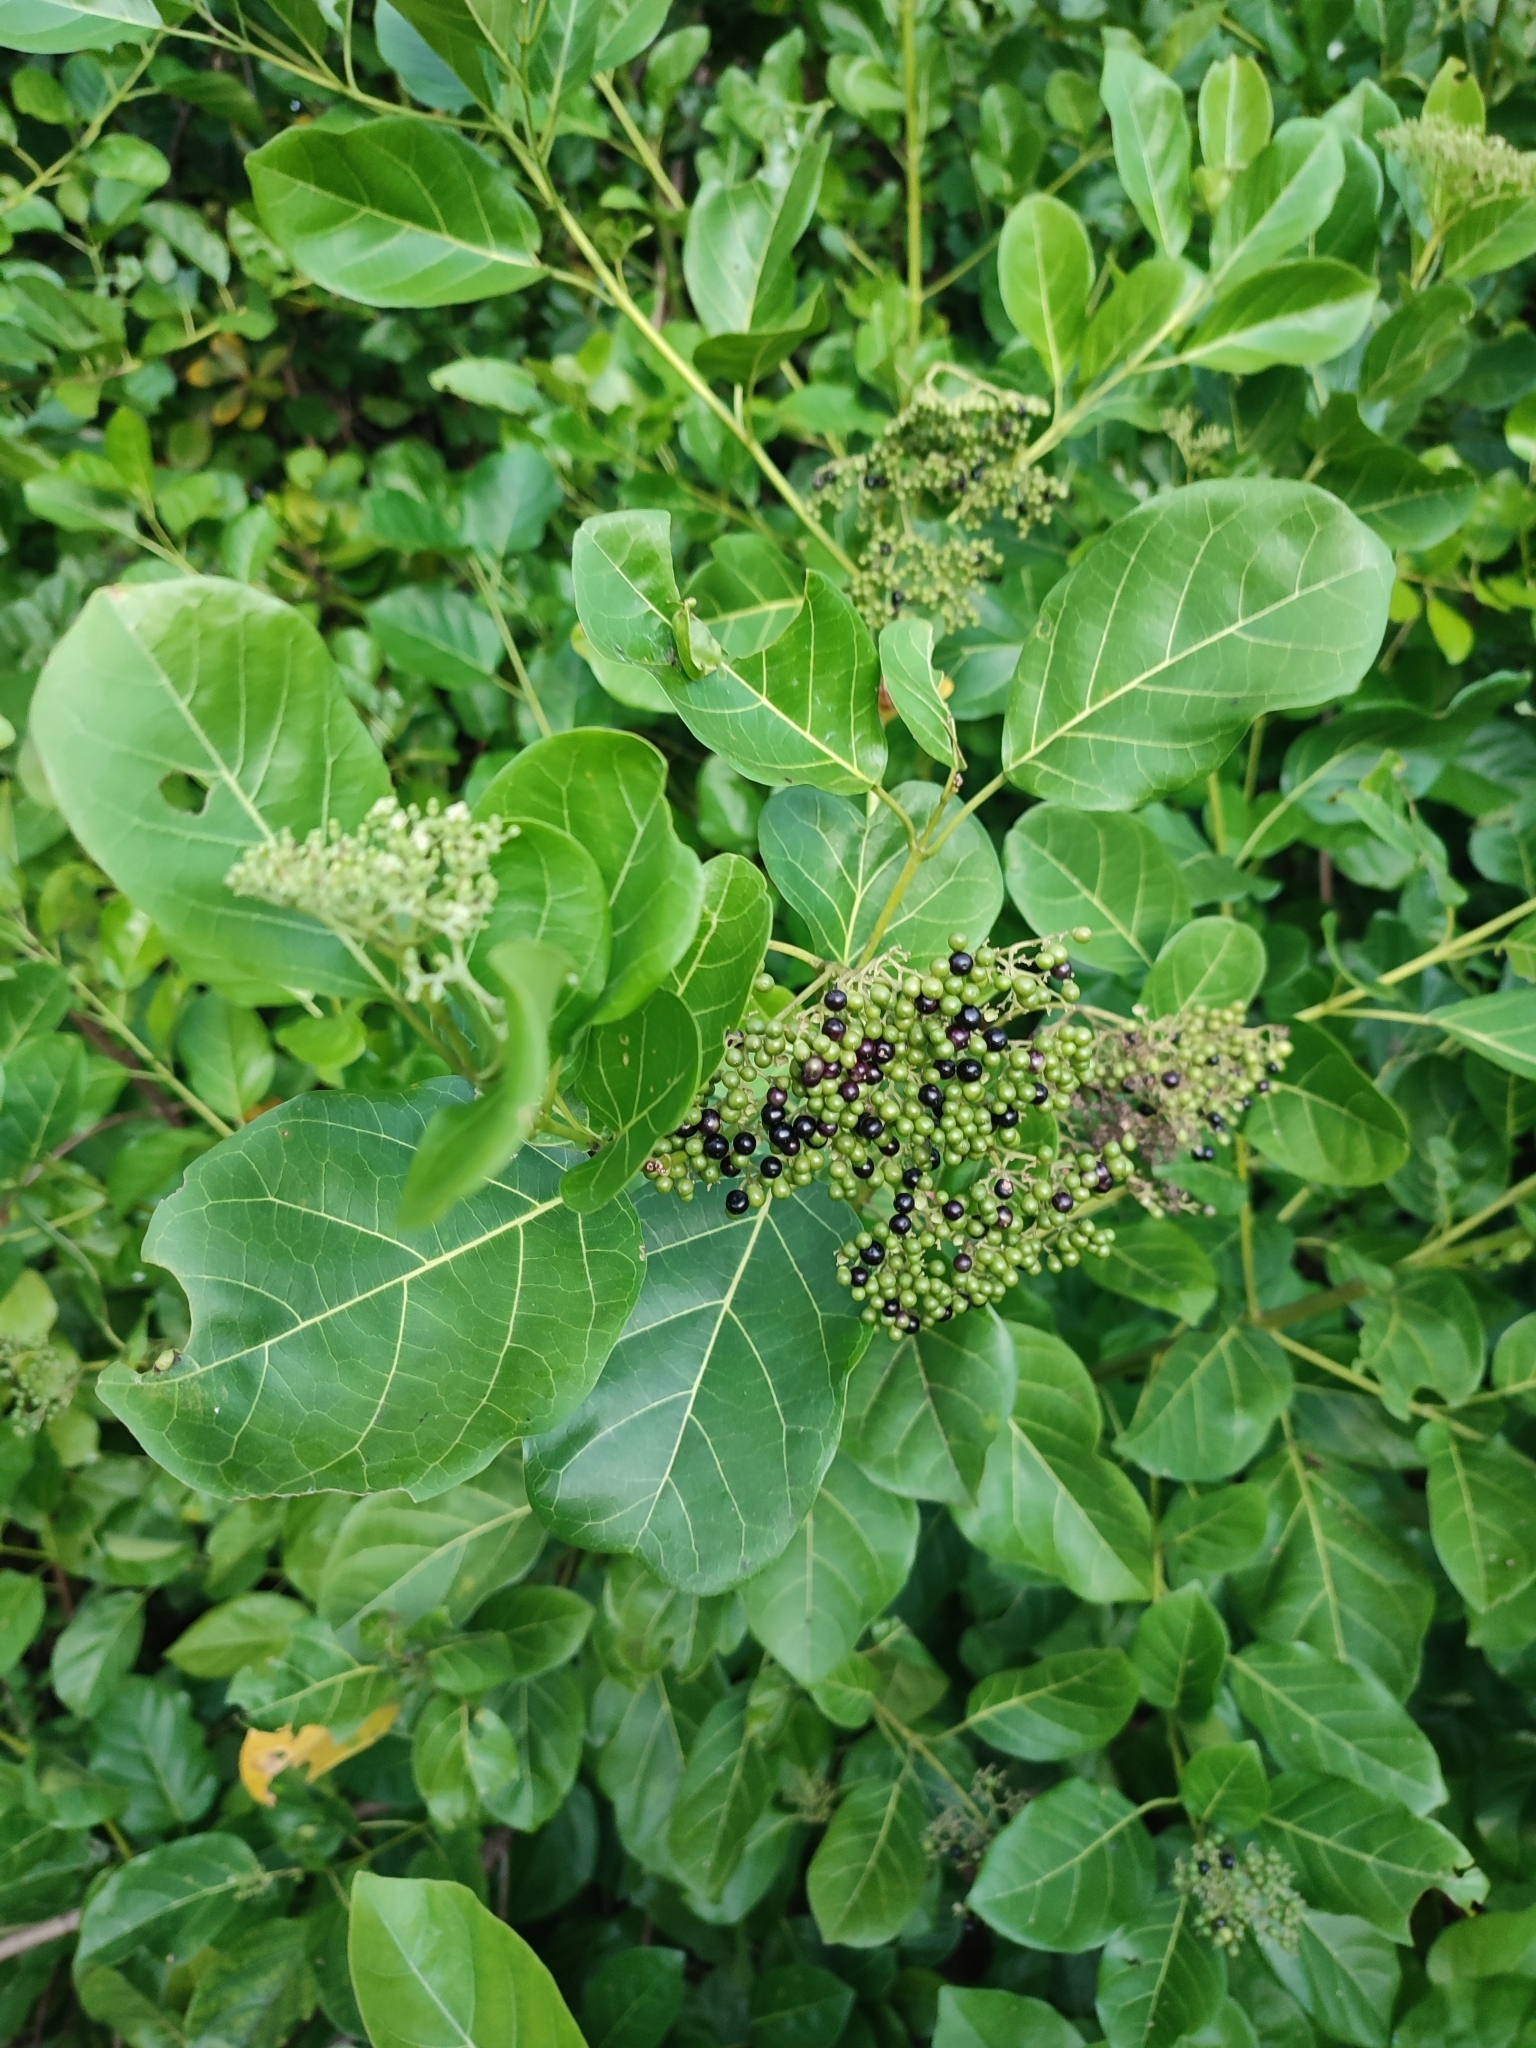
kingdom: Plantae
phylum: Tracheophyta
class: Magnoliopsida
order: Lamiales
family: Lamiaceae
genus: Premna
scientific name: Premna serratifolia
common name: Bastard guelder
